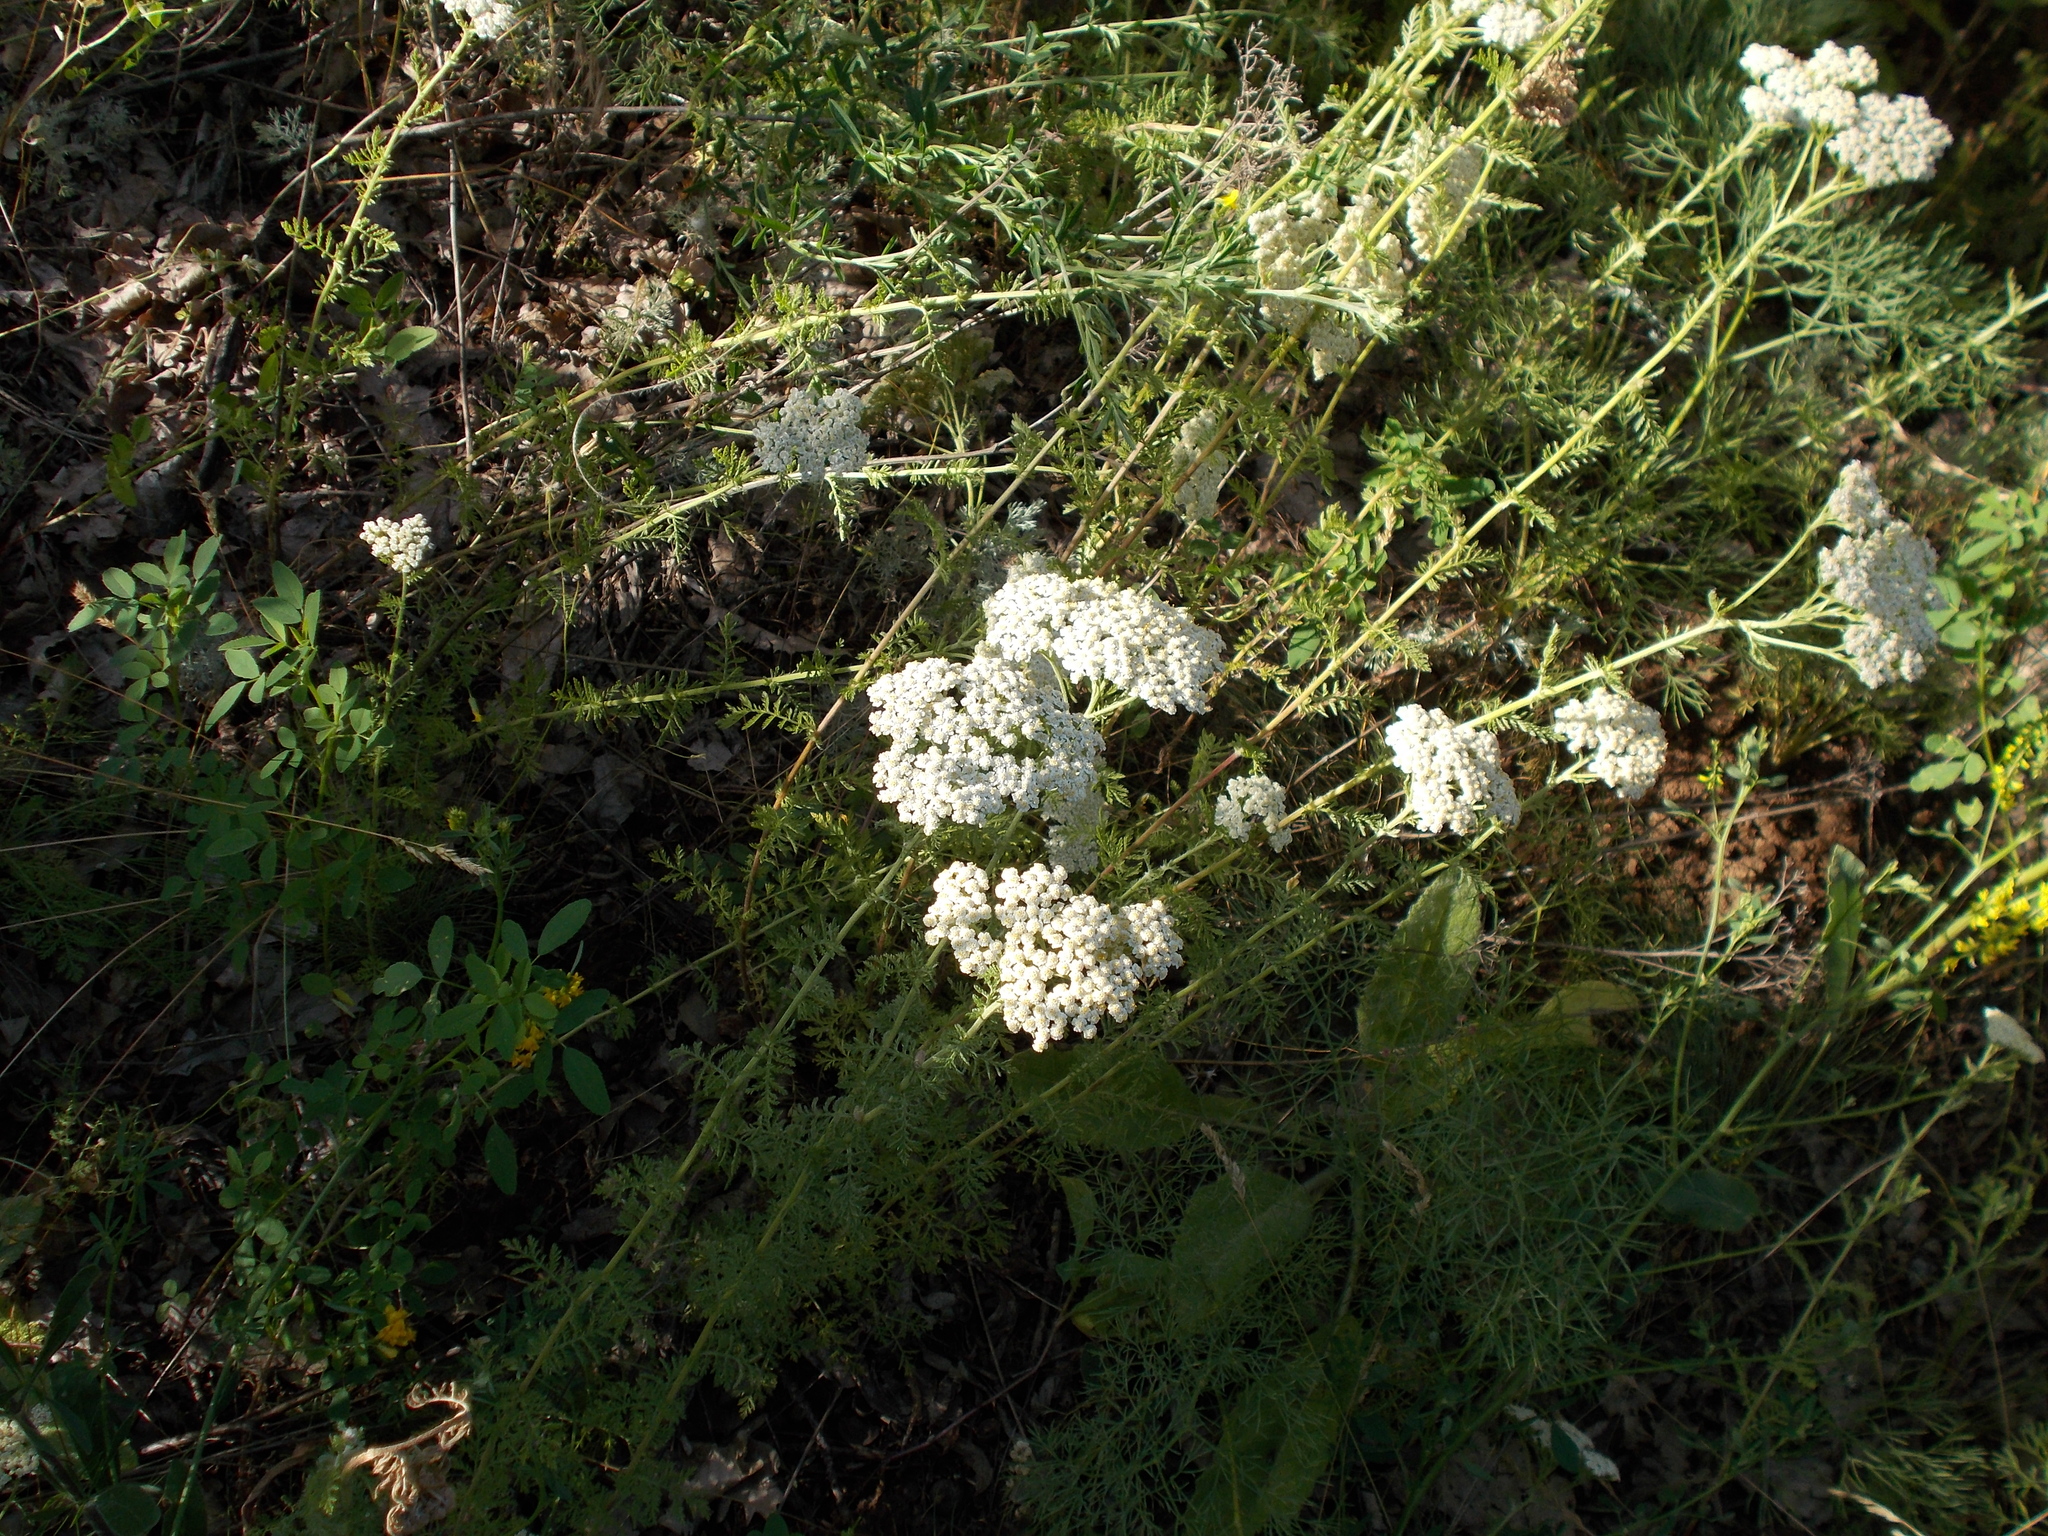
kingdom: Plantae
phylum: Tracheophyta
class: Magnoliopsida
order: Asterales
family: Asteraceae
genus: Achillea
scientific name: Achillea nobilis
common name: Noble yarrow
